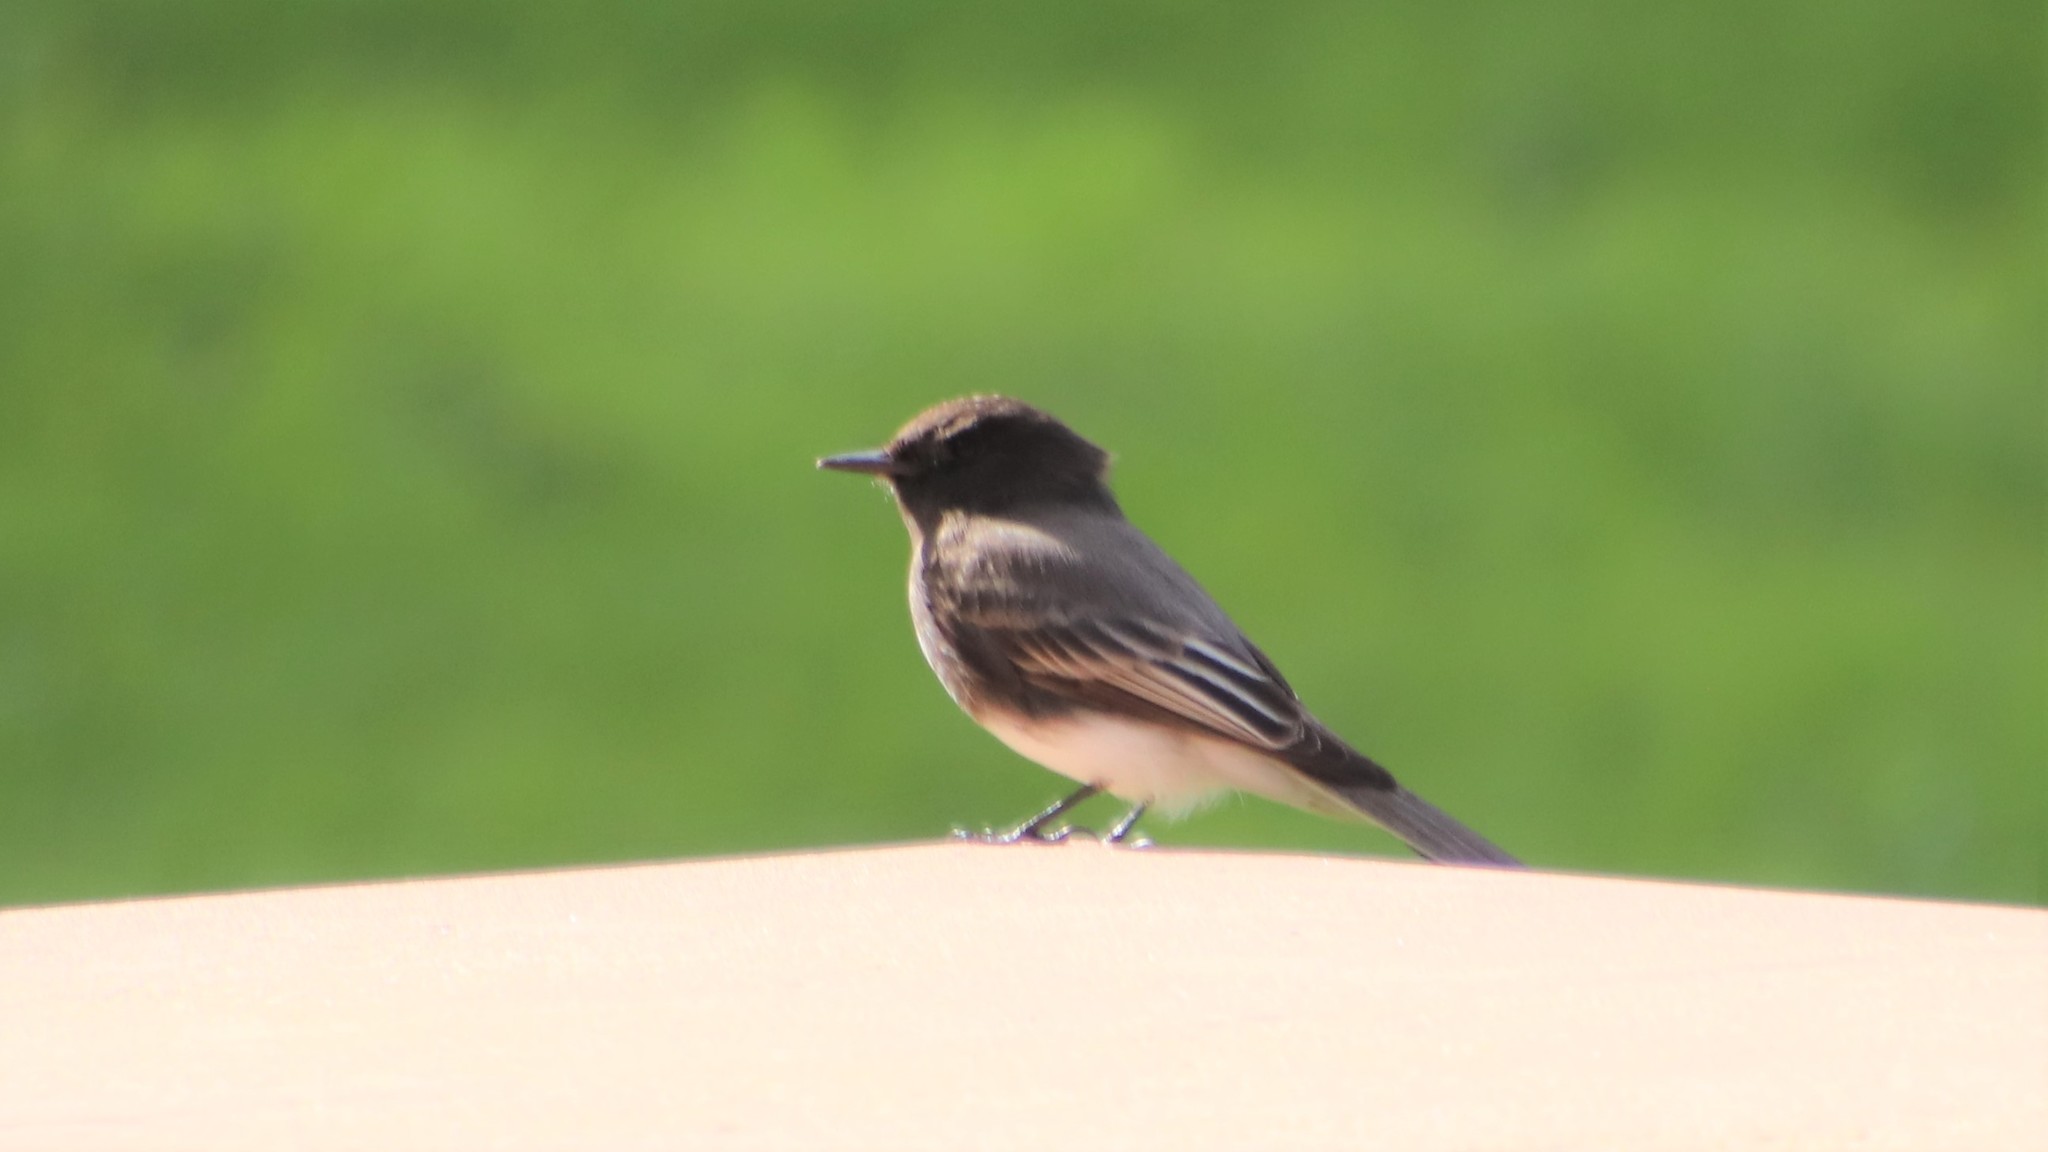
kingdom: Animalia
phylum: Chordata
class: Aves
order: Passeriformes
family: Tyrannidae
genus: Sayornis
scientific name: Sayornis nigricans
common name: Black phoebe
